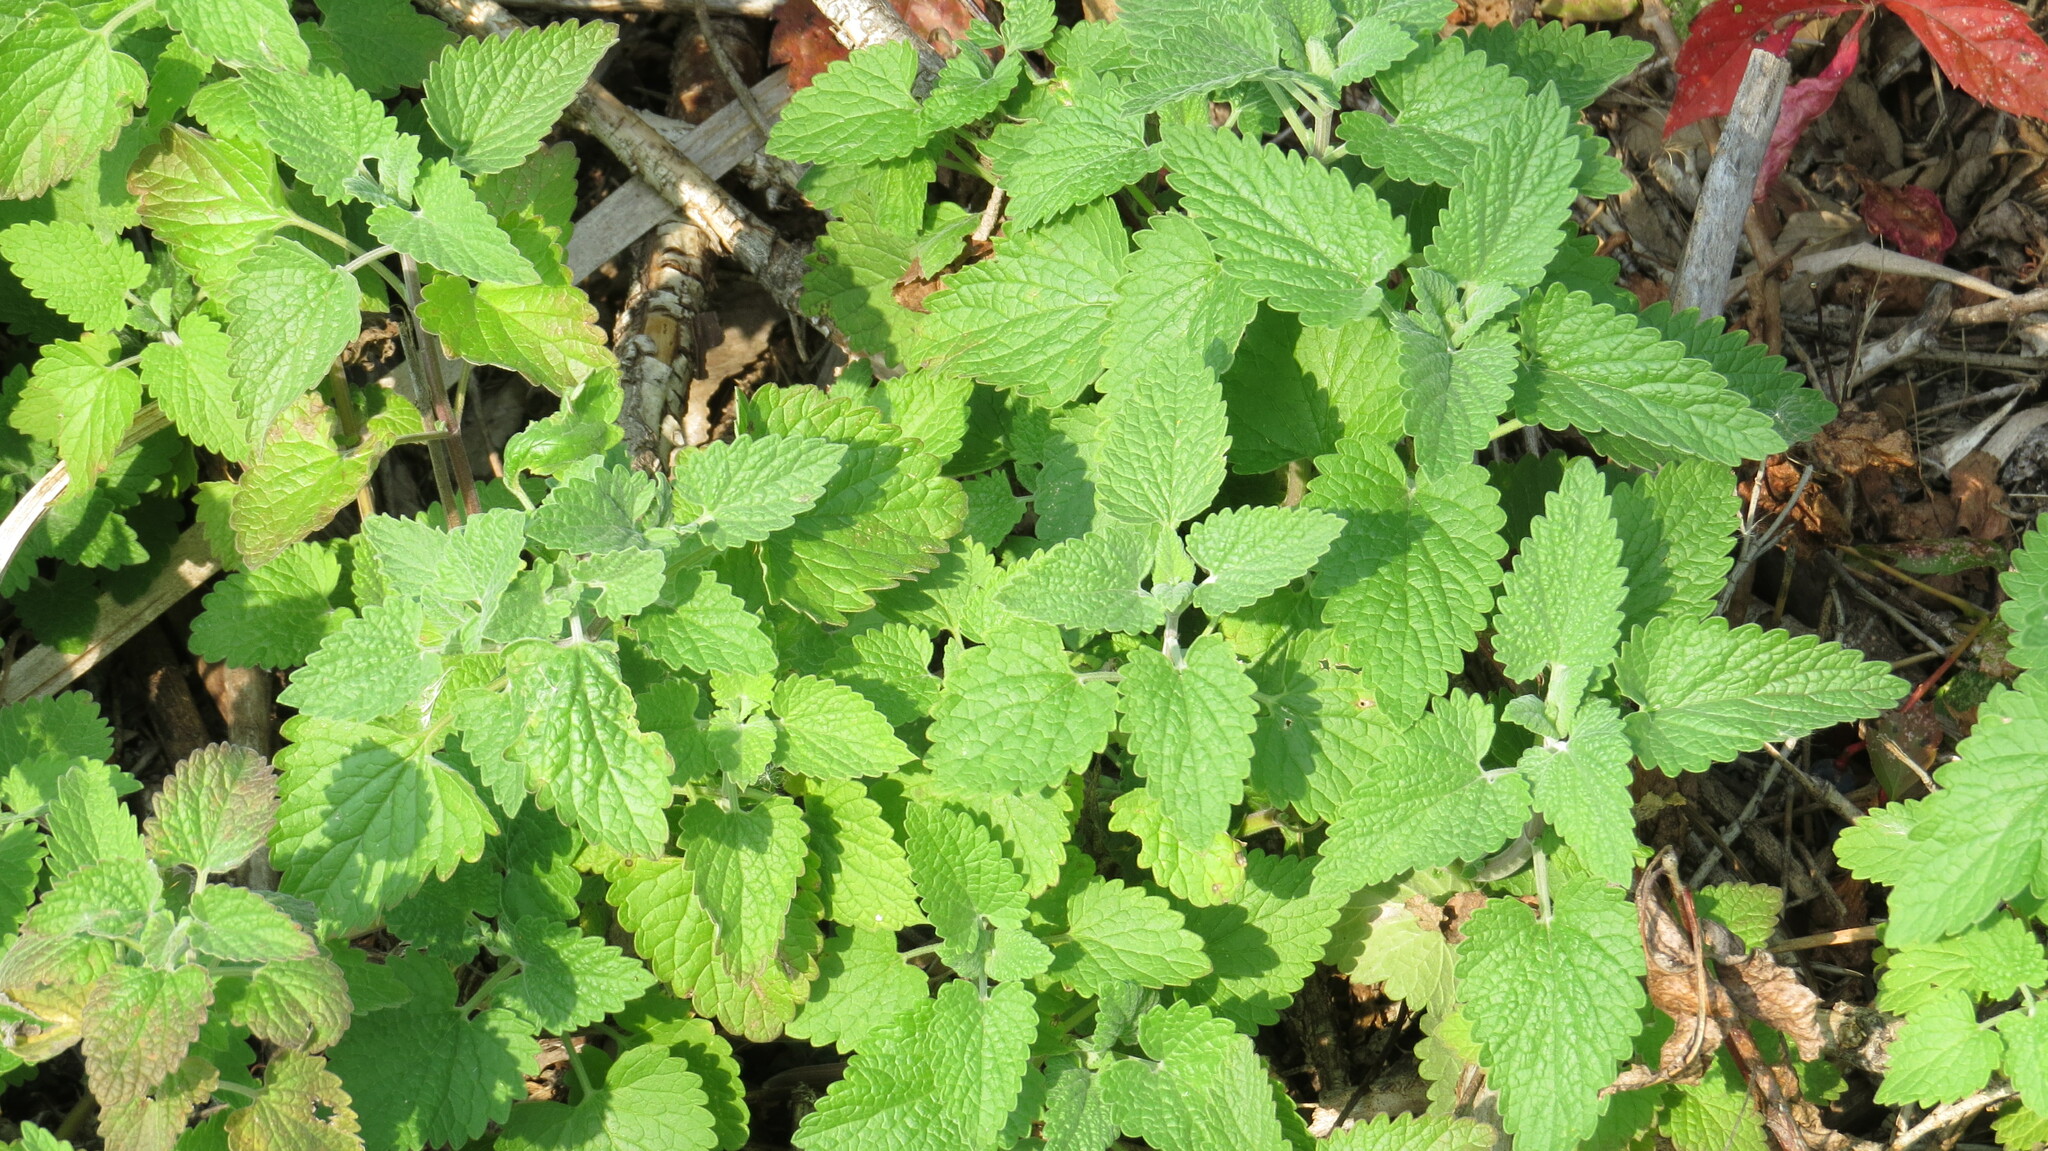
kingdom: Plantae
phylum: Tracheophyta
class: Magnoliopsida
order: Lamiales
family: Lamiaceae
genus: Nepeta
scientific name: Nepeta cataria
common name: Catnip
